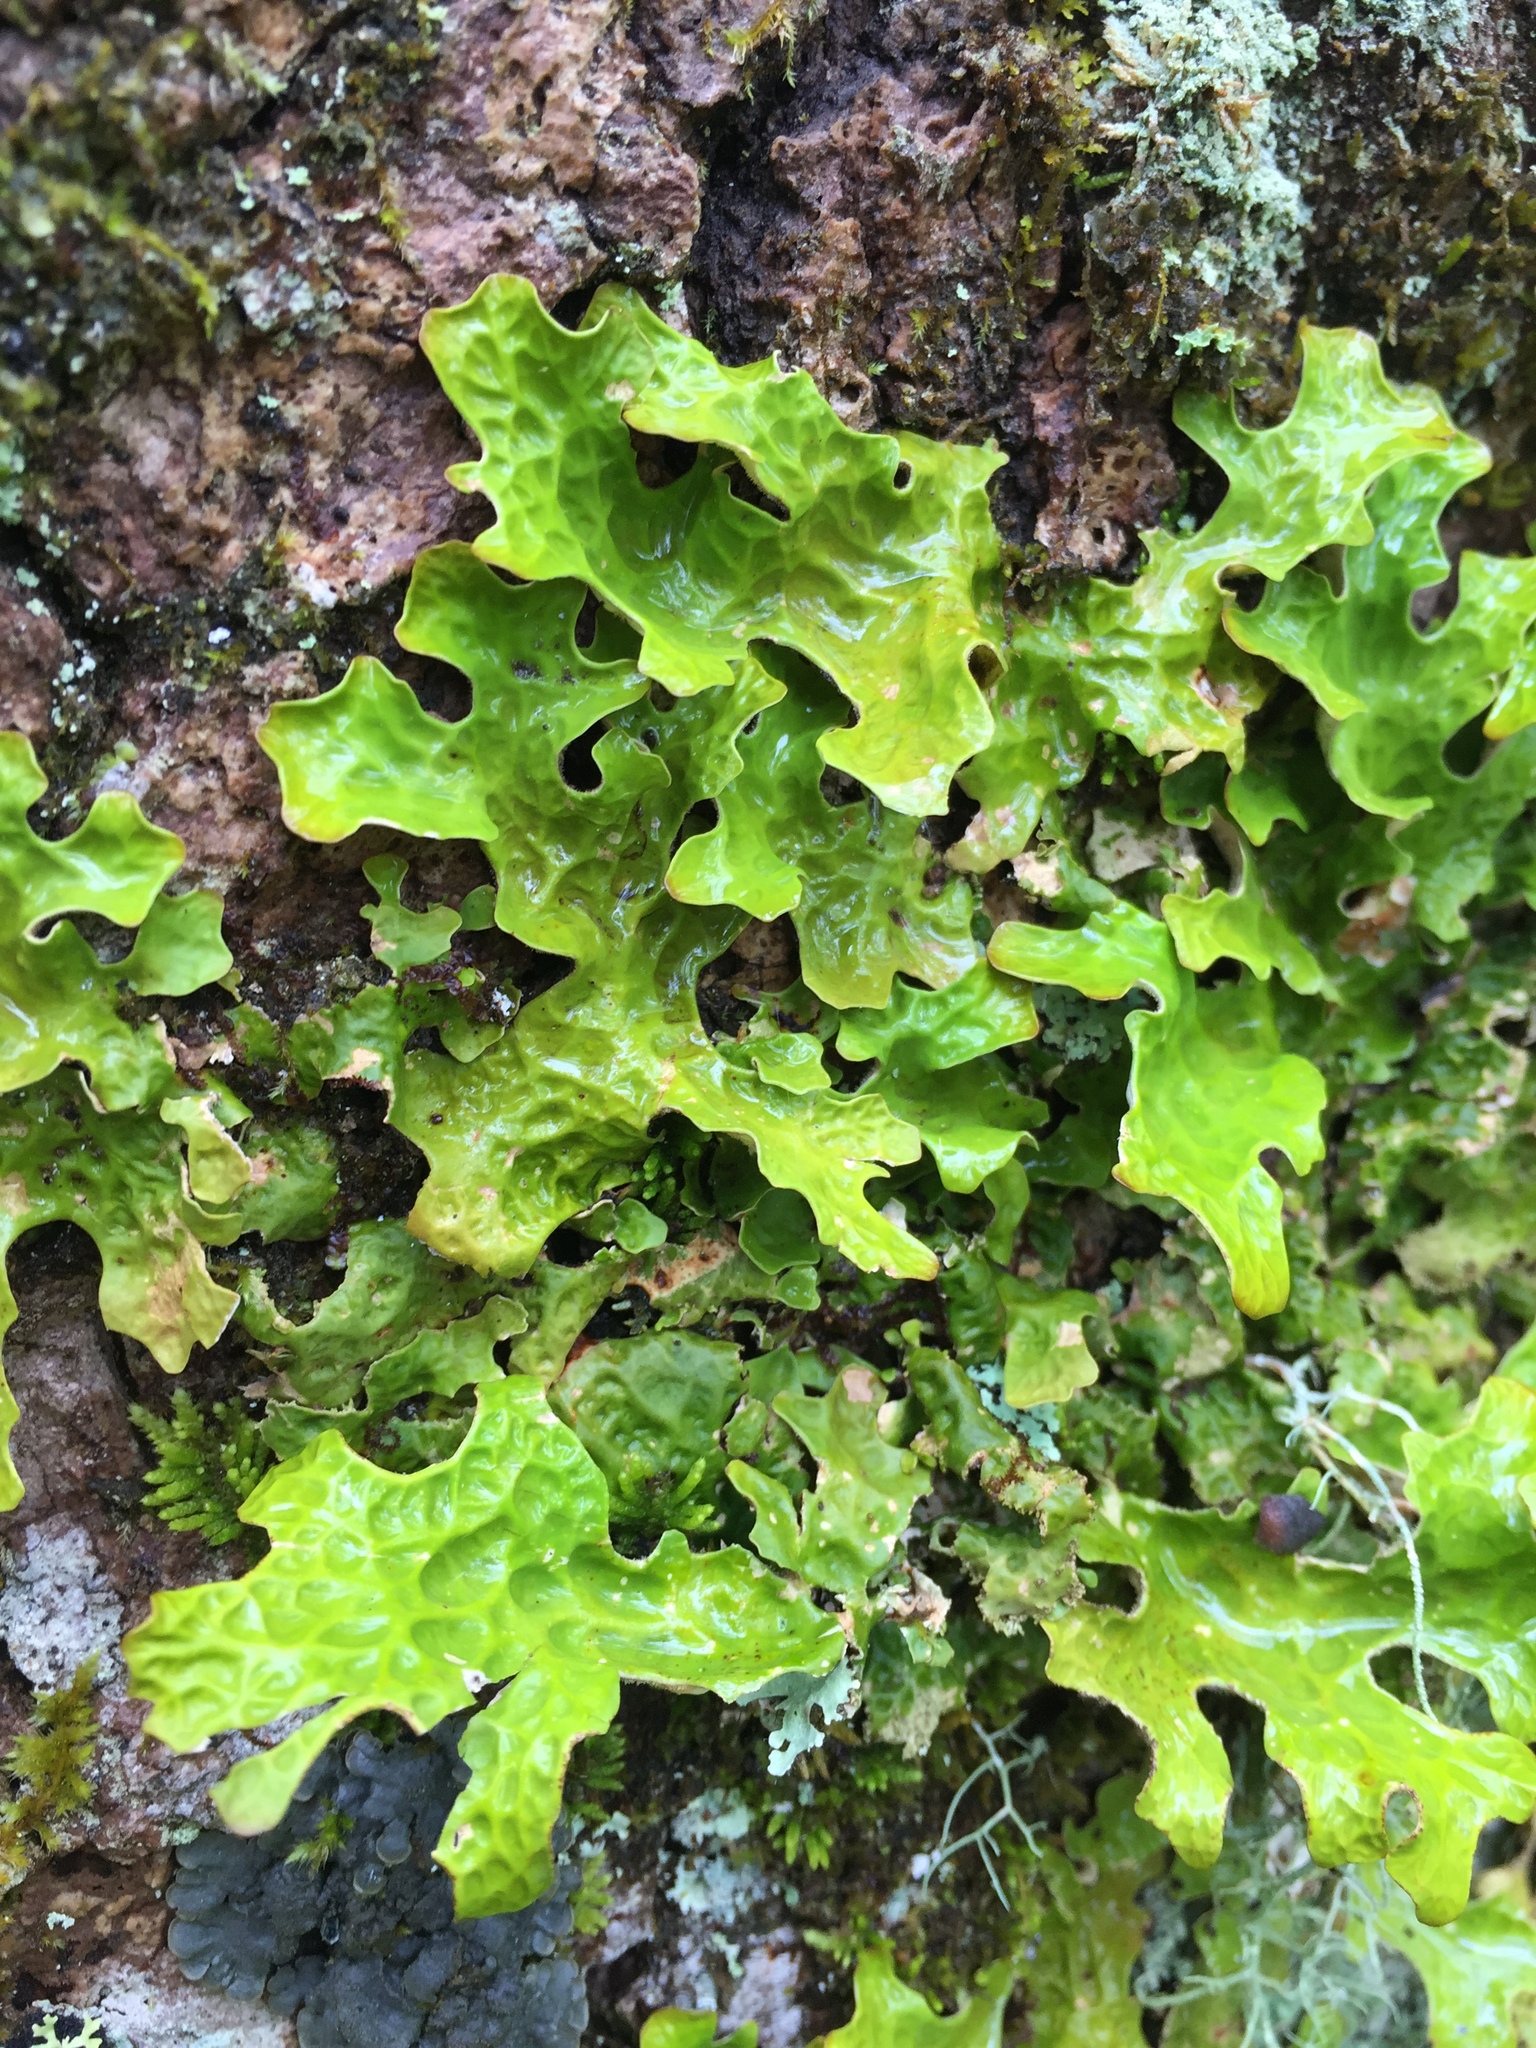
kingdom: Fungi
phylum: Ascomycota
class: Lecanoromycetes
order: Peltigerales
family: Lobariaceae
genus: Lobaria
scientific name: Lobaria pulmonaria
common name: Lungwort
